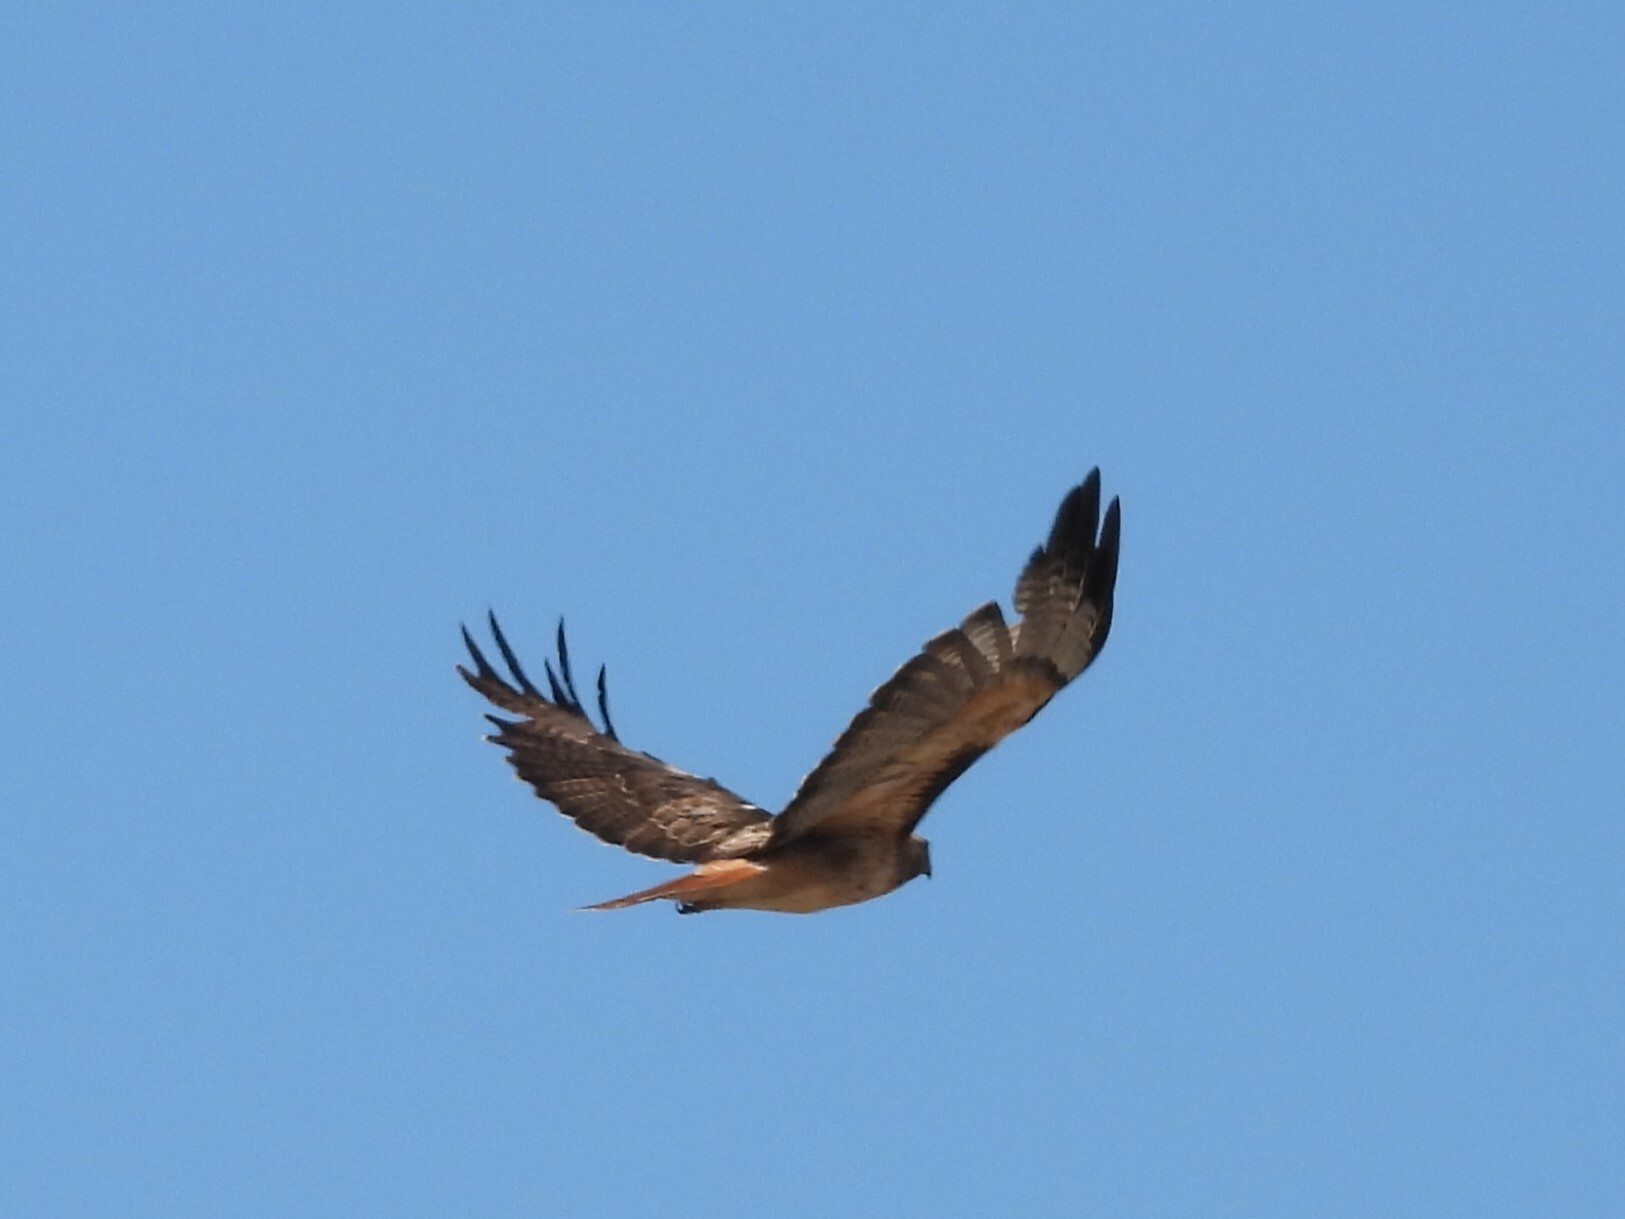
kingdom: Animalia
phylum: Chordata
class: Aves
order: Accipitriformes
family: Accipitridae
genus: Buteo
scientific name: Buteo jamaicensis
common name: Red-tailed hawk
